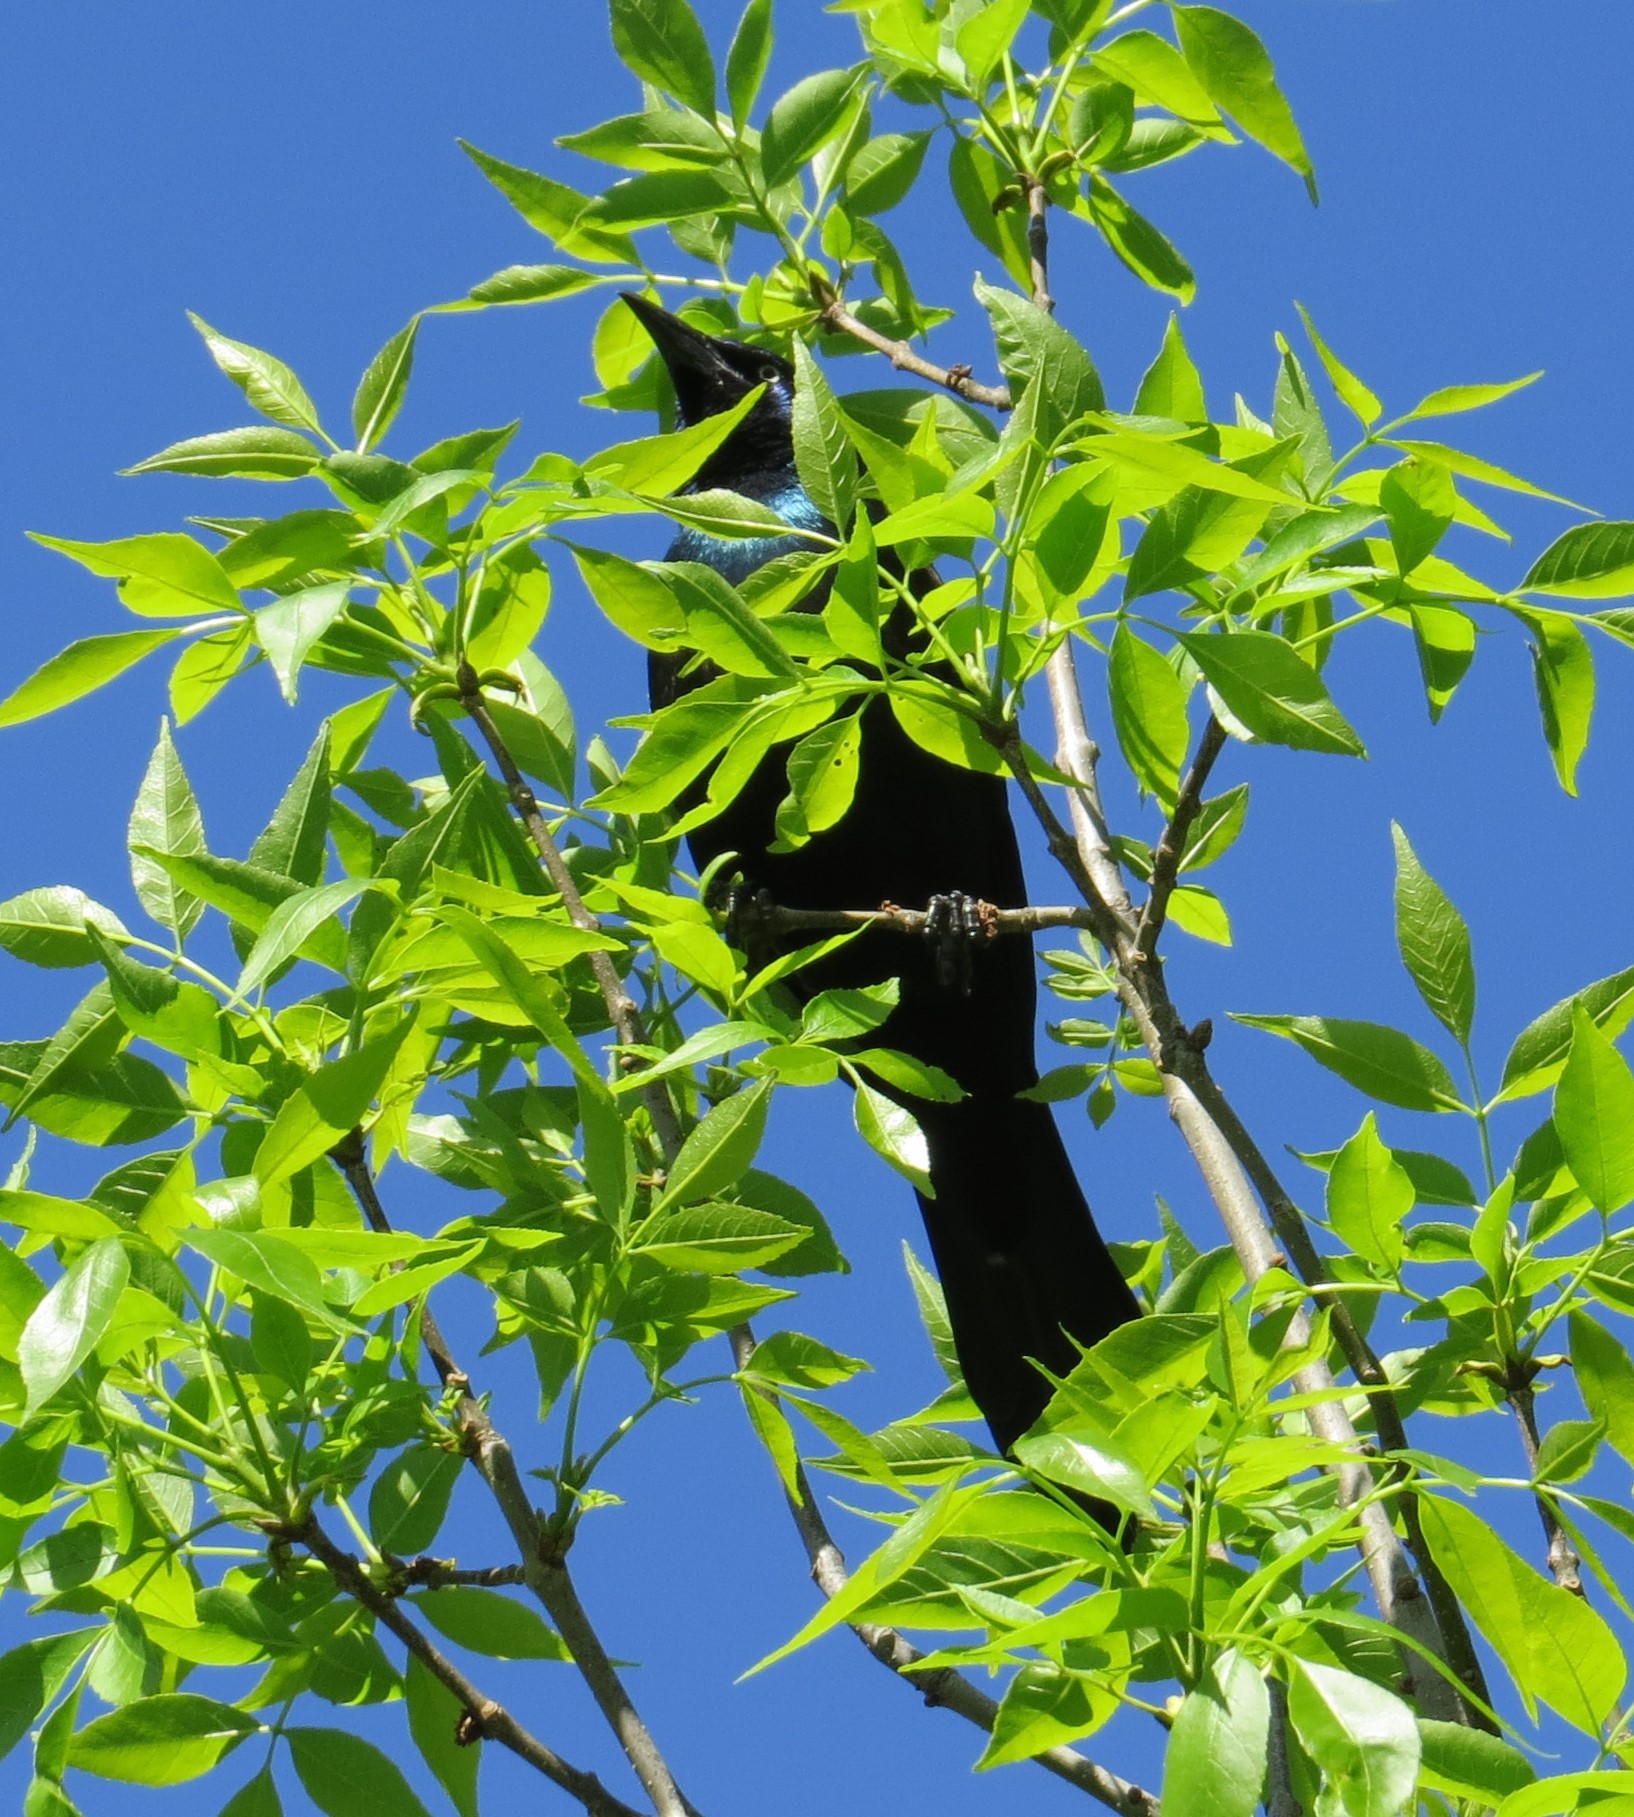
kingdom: Animalia
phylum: Chordata
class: Aves
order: Passeriformes
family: Icteridae
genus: Quiscalus
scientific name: Quiscalus quiscula
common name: Common grackle
